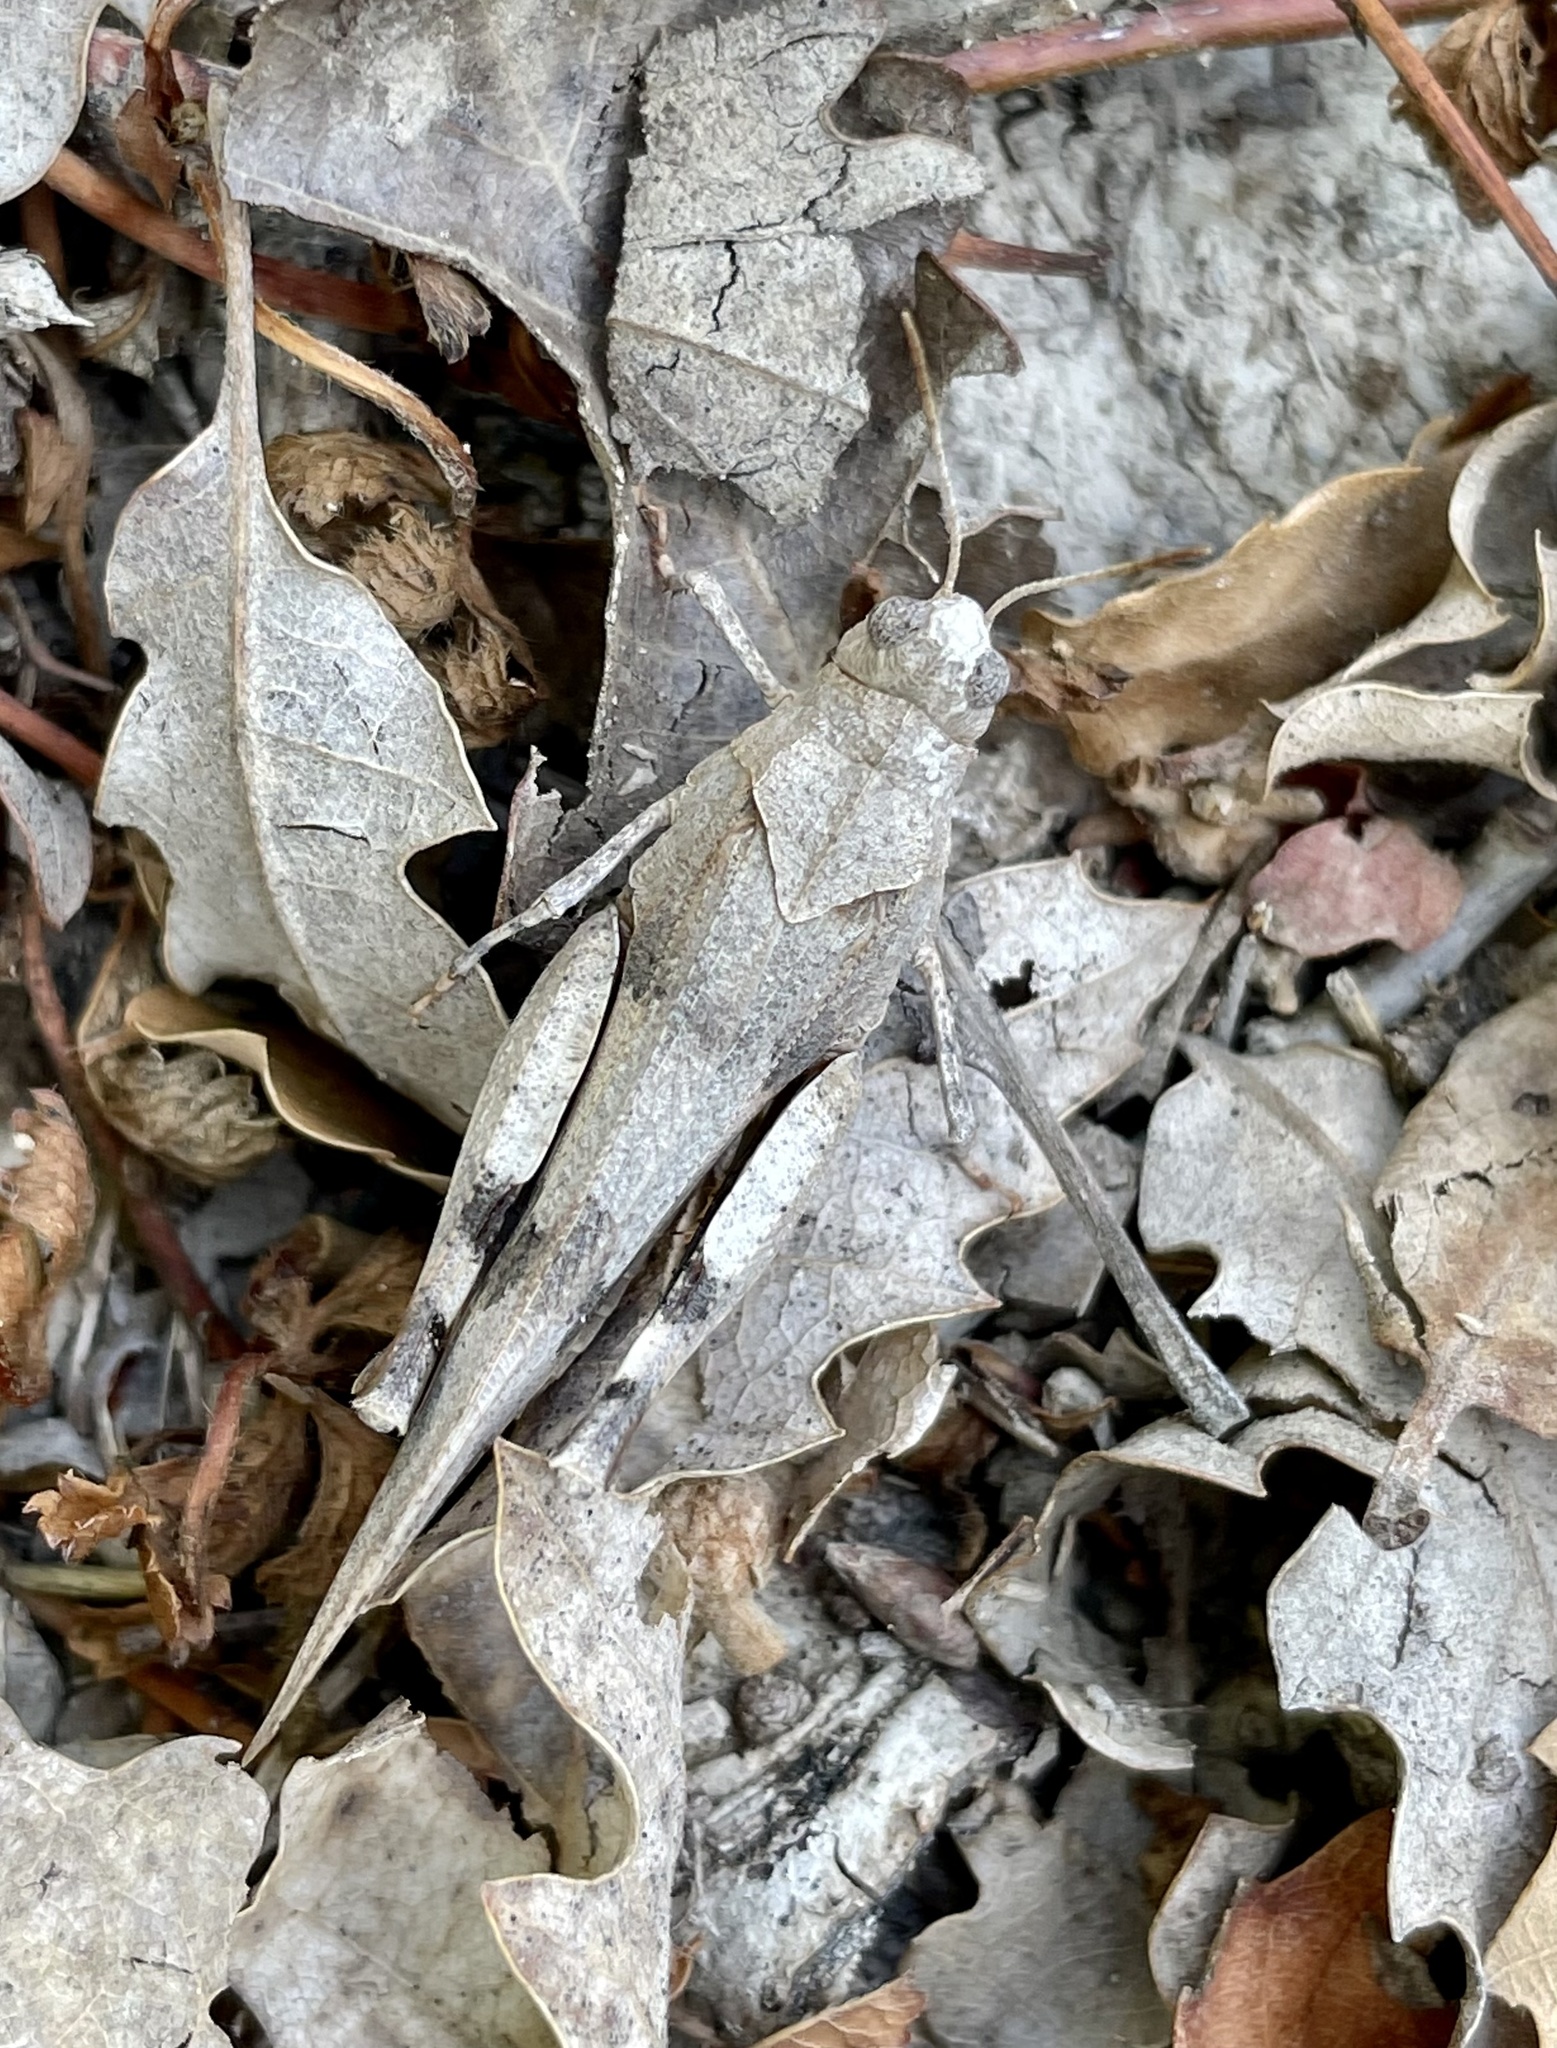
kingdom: Animalia
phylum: Arthropoda
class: Insecta
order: Orthoptera
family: Acrididae
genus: Oedipoda
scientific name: Oedipoda caerulescens
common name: Blue-winged grasshopper
